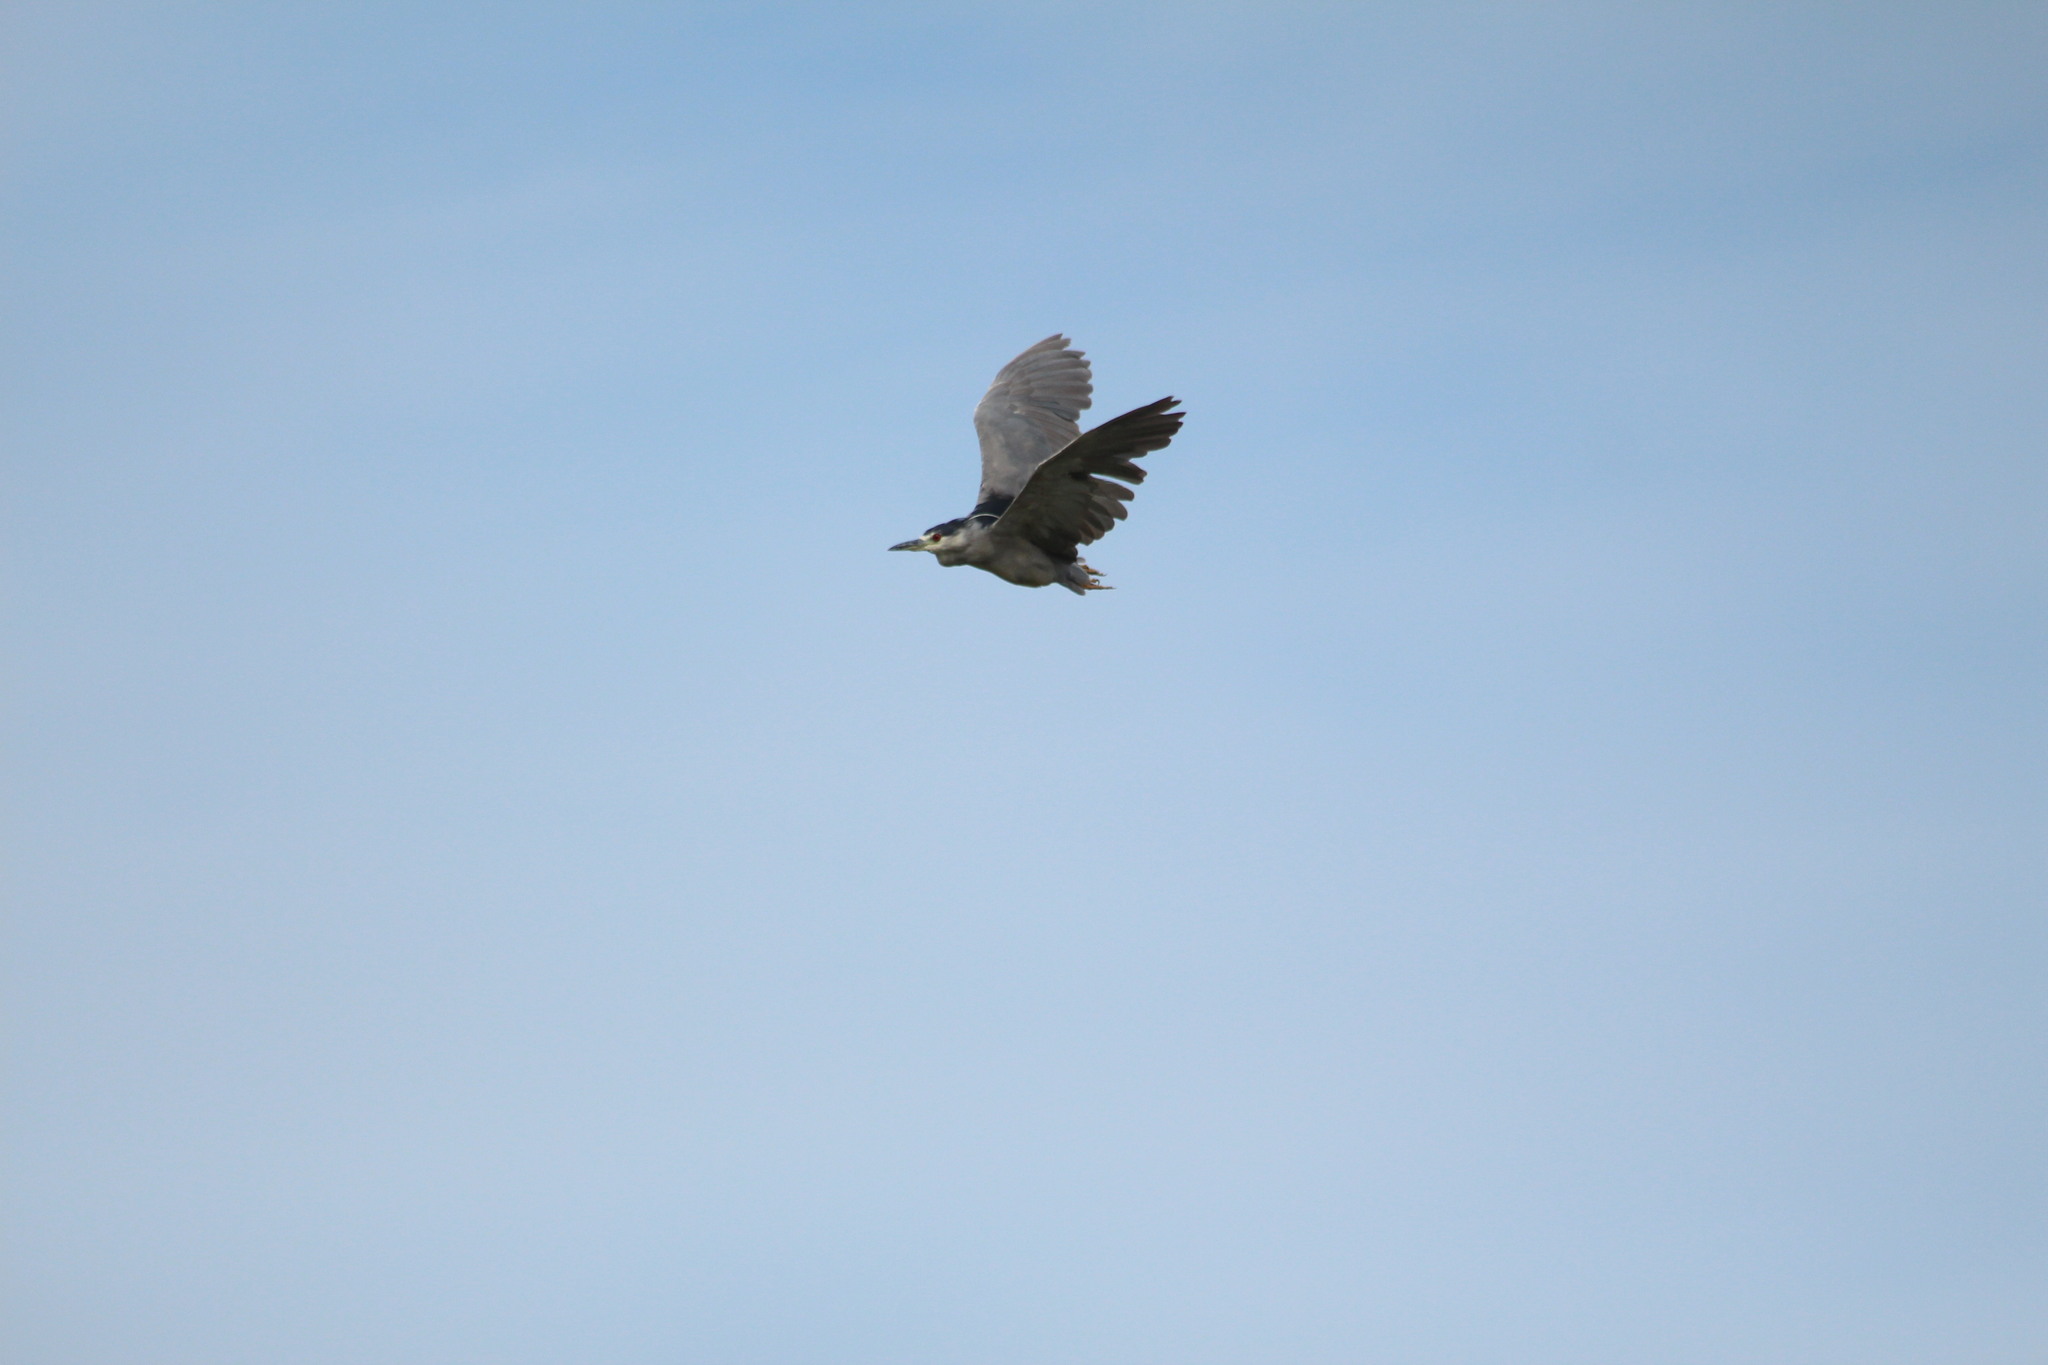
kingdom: Animalia
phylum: Chordata
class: Aves
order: Pelecaniformes
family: Ardeidae
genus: Nycticorax
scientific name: Nycticorax nycticorax
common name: Black-crowned night heron
